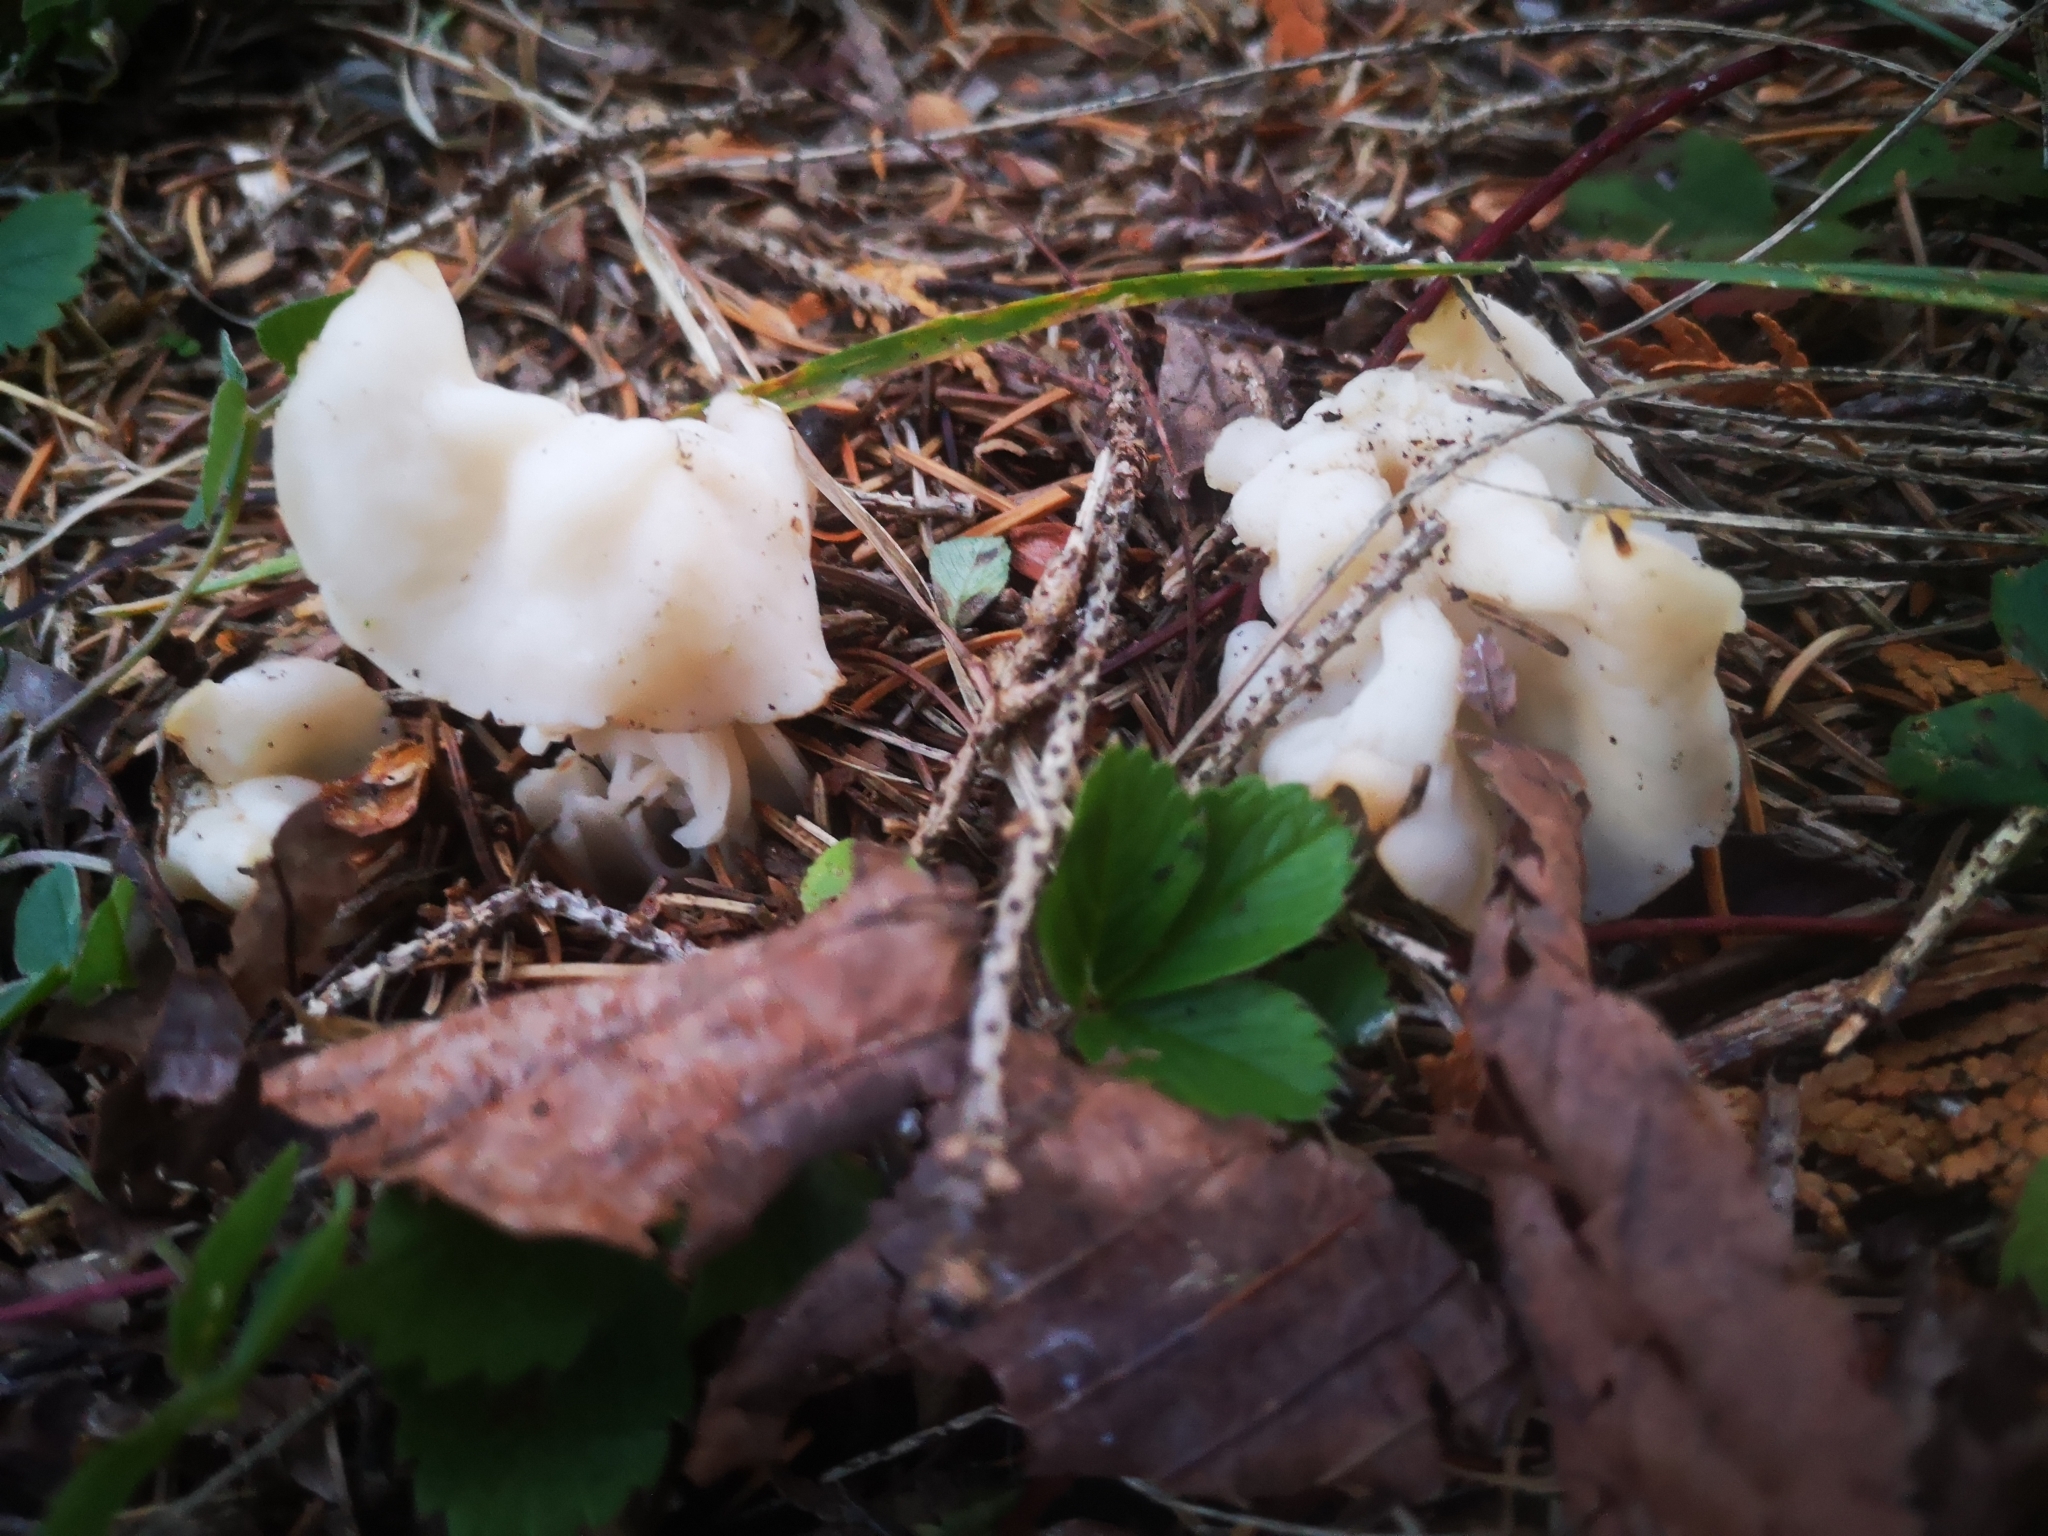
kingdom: Fungi
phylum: Ascomycota
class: Pezizomycetes
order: Pezizales
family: Helvellaceae
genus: Helvella
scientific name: Helvella crispa
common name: White saddle
